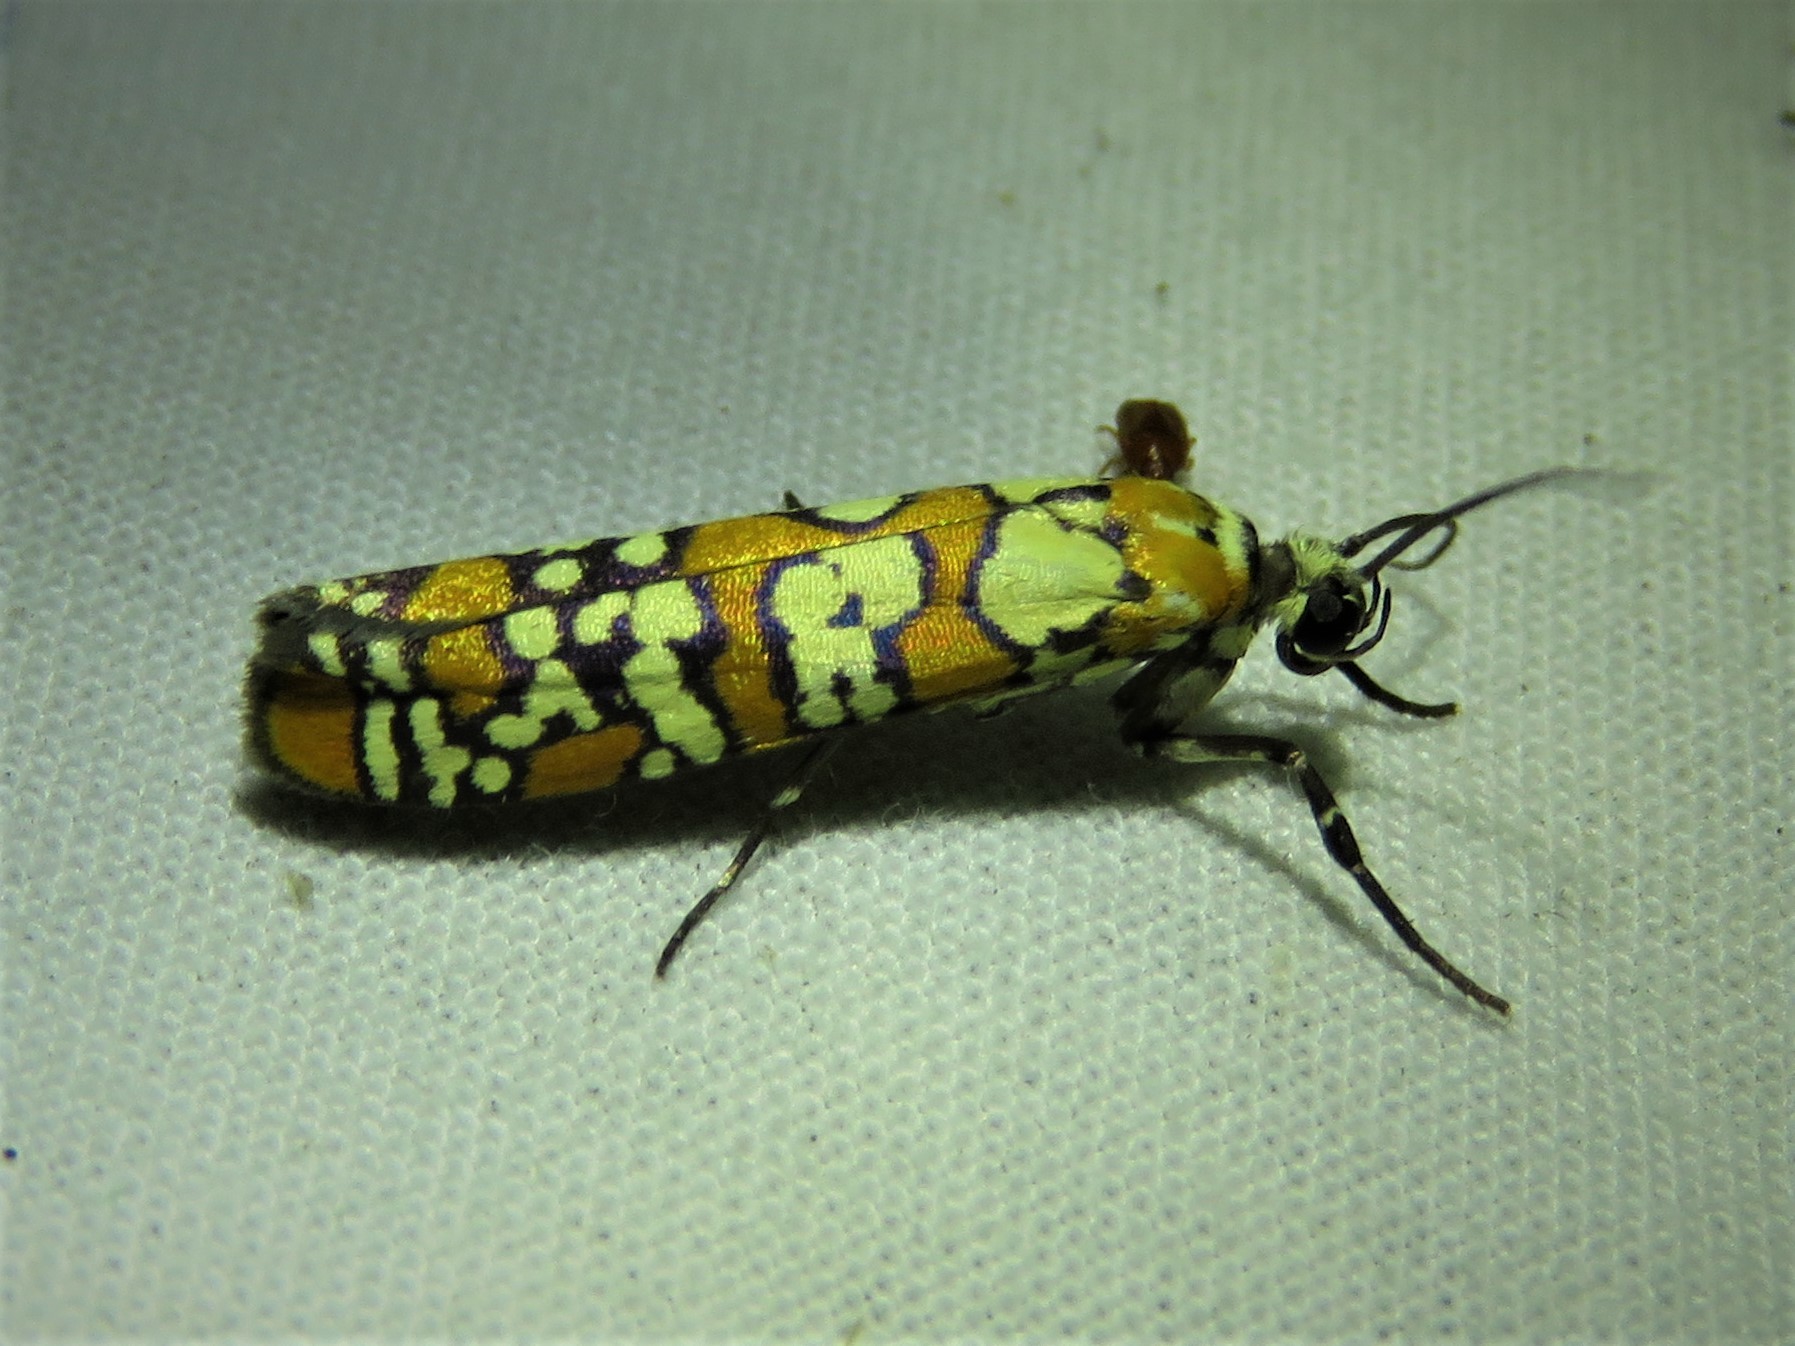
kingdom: Animalia
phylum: Arthropoda
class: Insecta
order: Lepidoptera
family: Attevidae
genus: Atteva
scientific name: Atteva punctella
